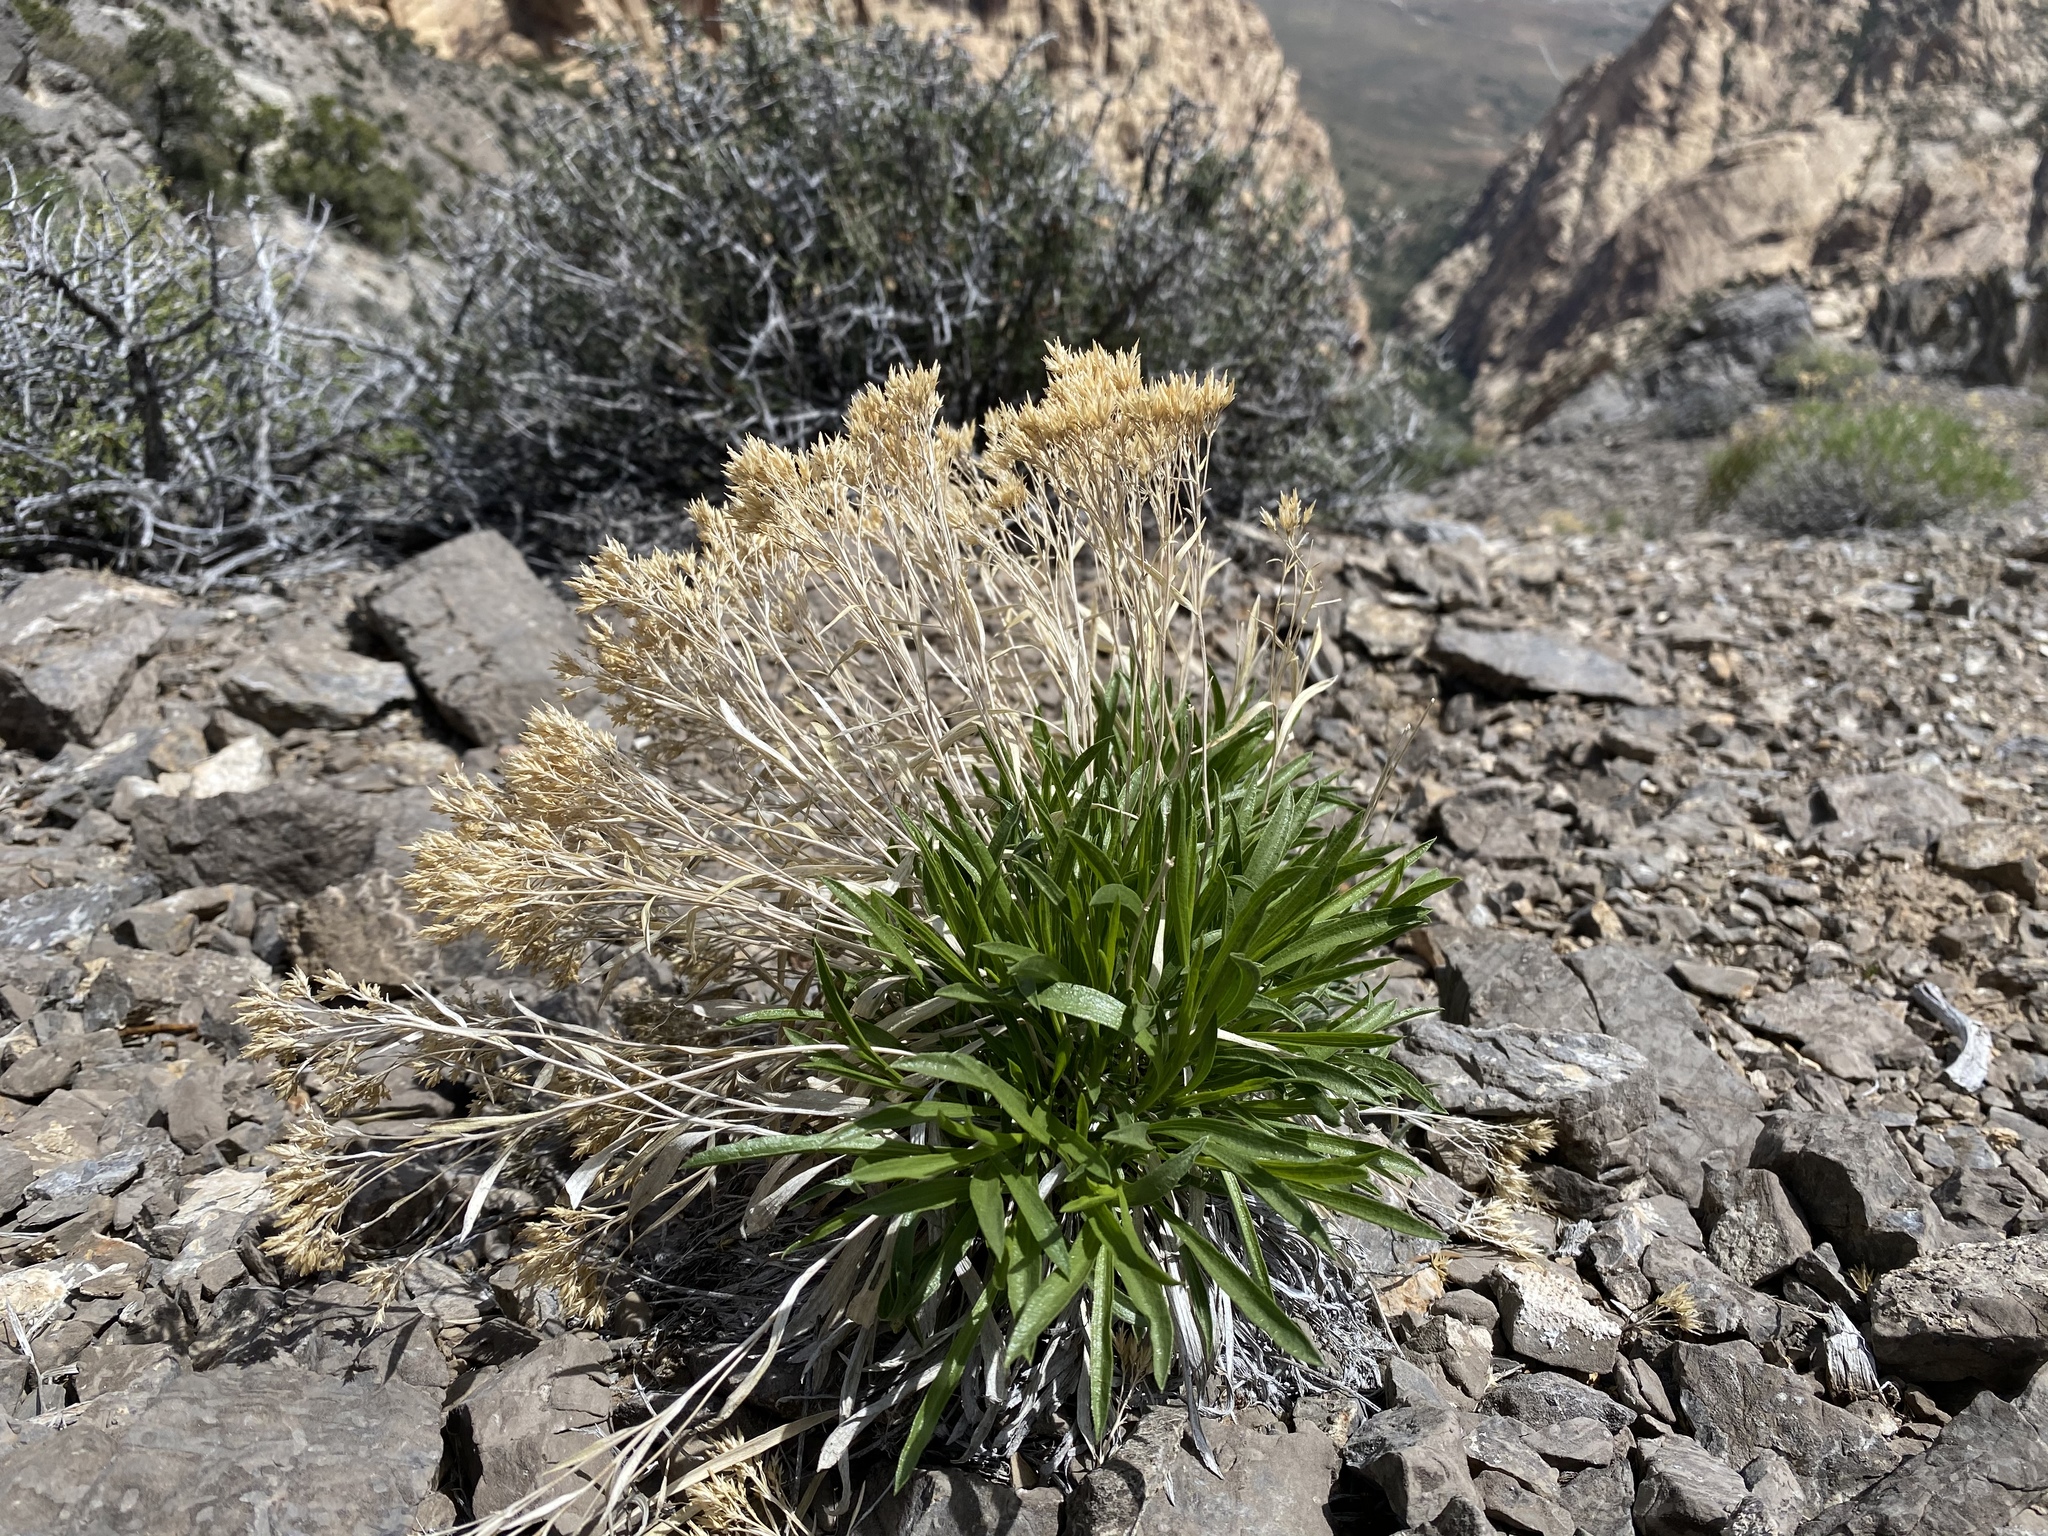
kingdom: Plantae
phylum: Tracheophyta
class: Magnoliopsida
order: Asterales
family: Asteraceae
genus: Petradoria
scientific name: Petradoria pumila
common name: Rock-goldenrod
